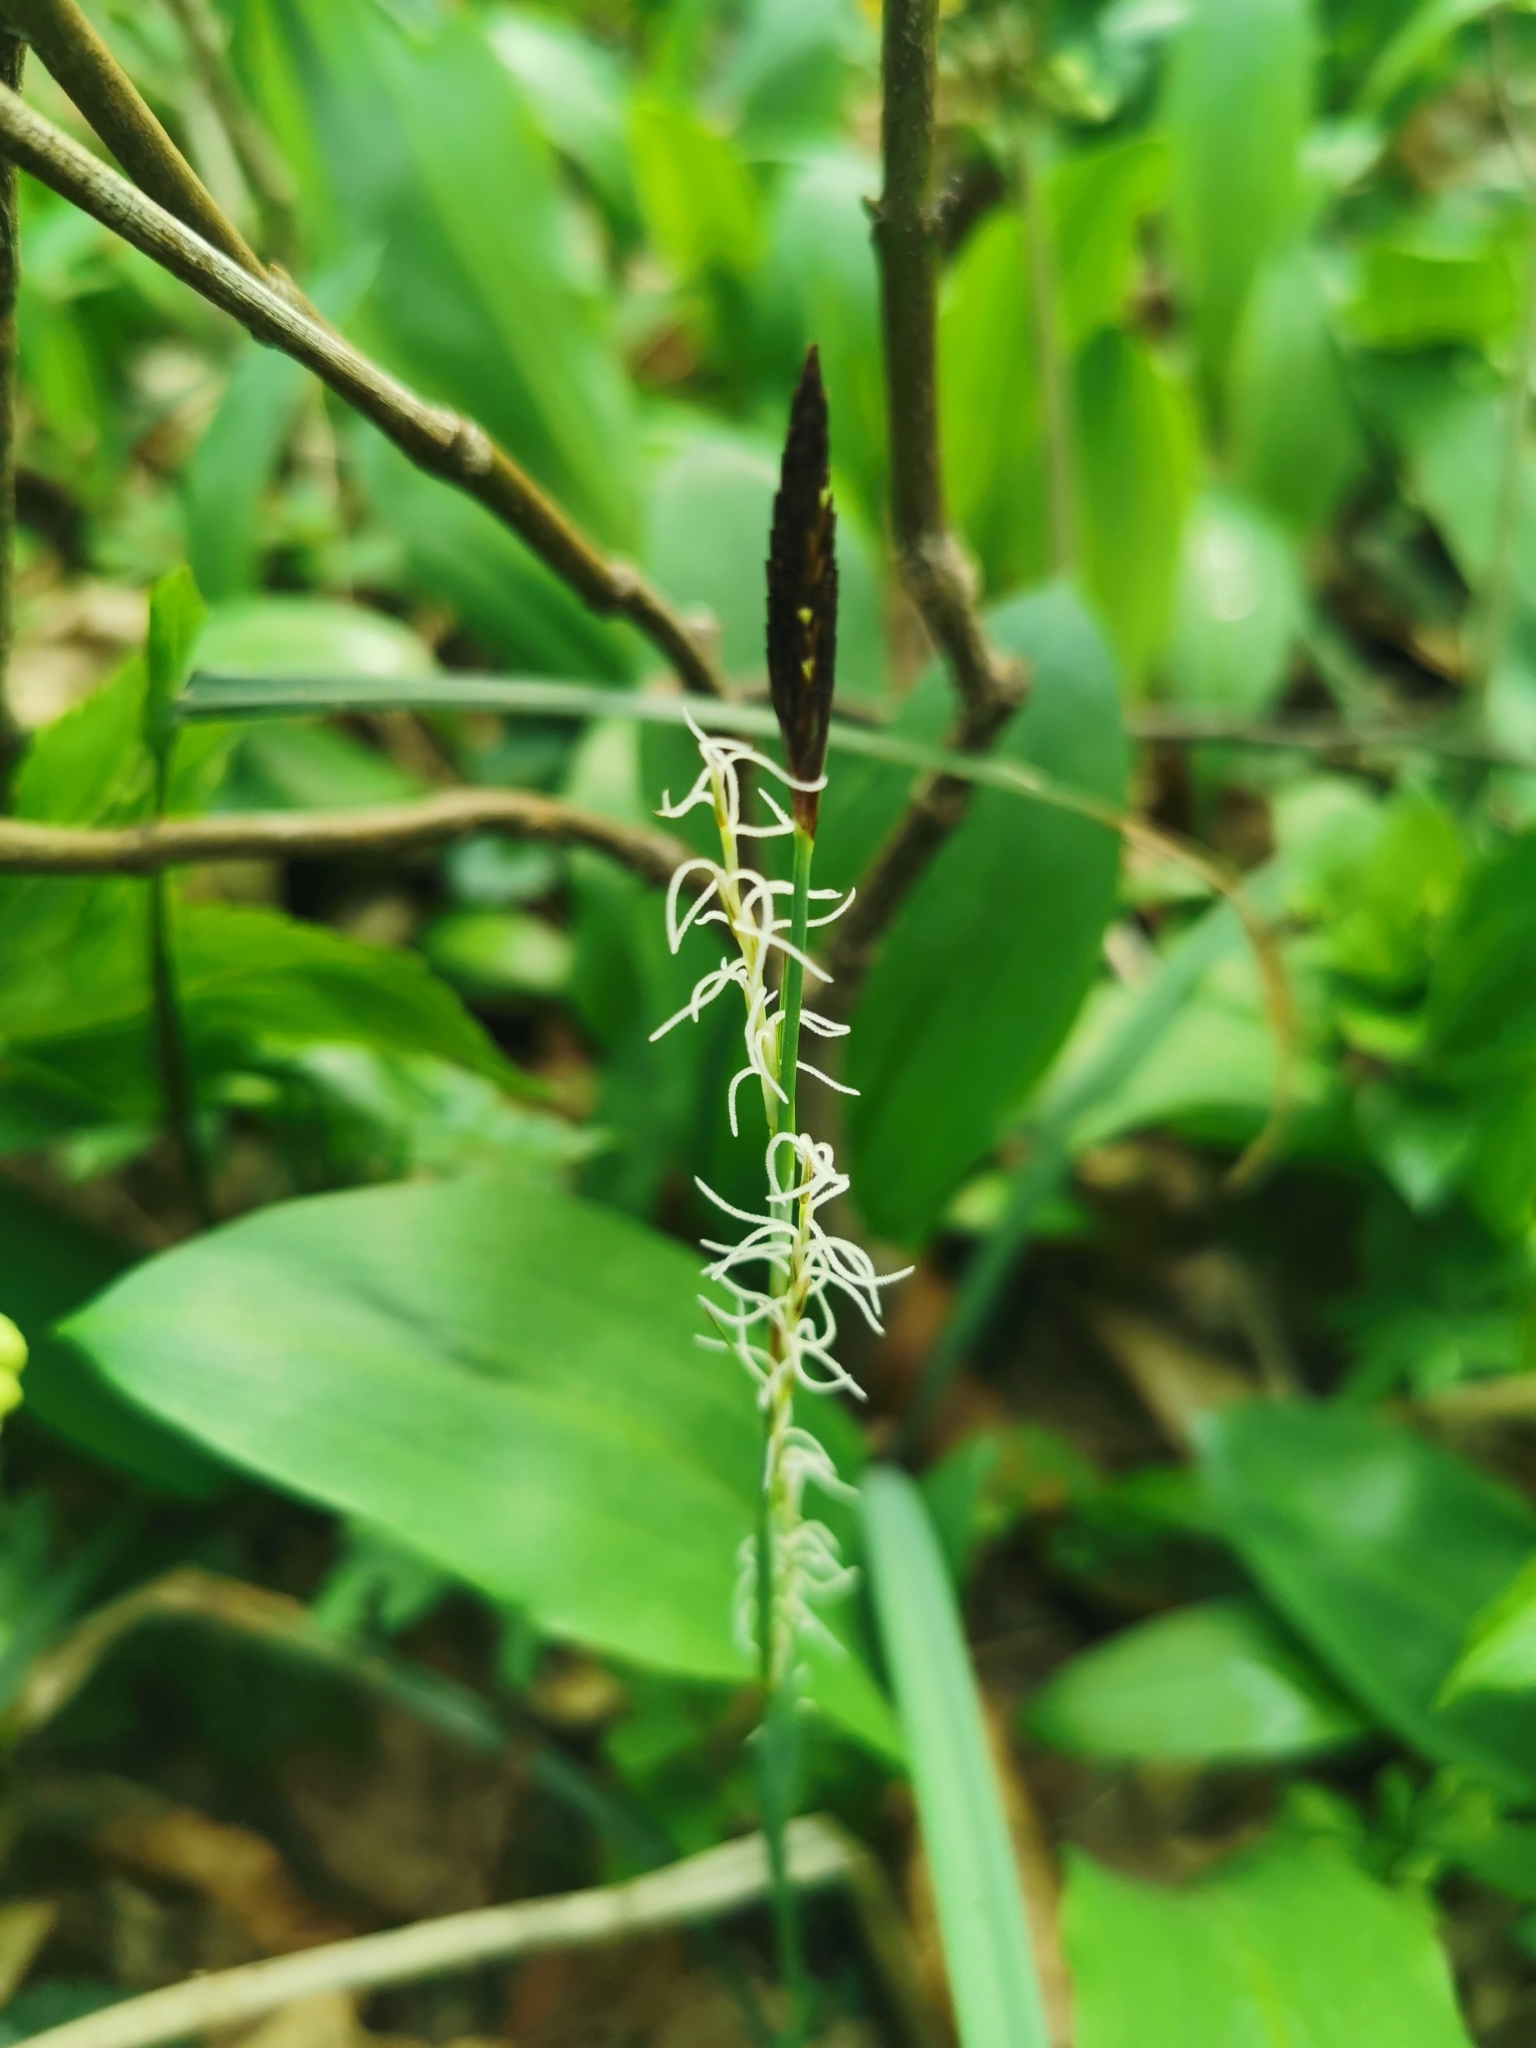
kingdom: Plantae
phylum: Tracheophyta
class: Liliopsida
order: Poales
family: Cyperaceae
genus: Carex
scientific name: Carex pilosa
